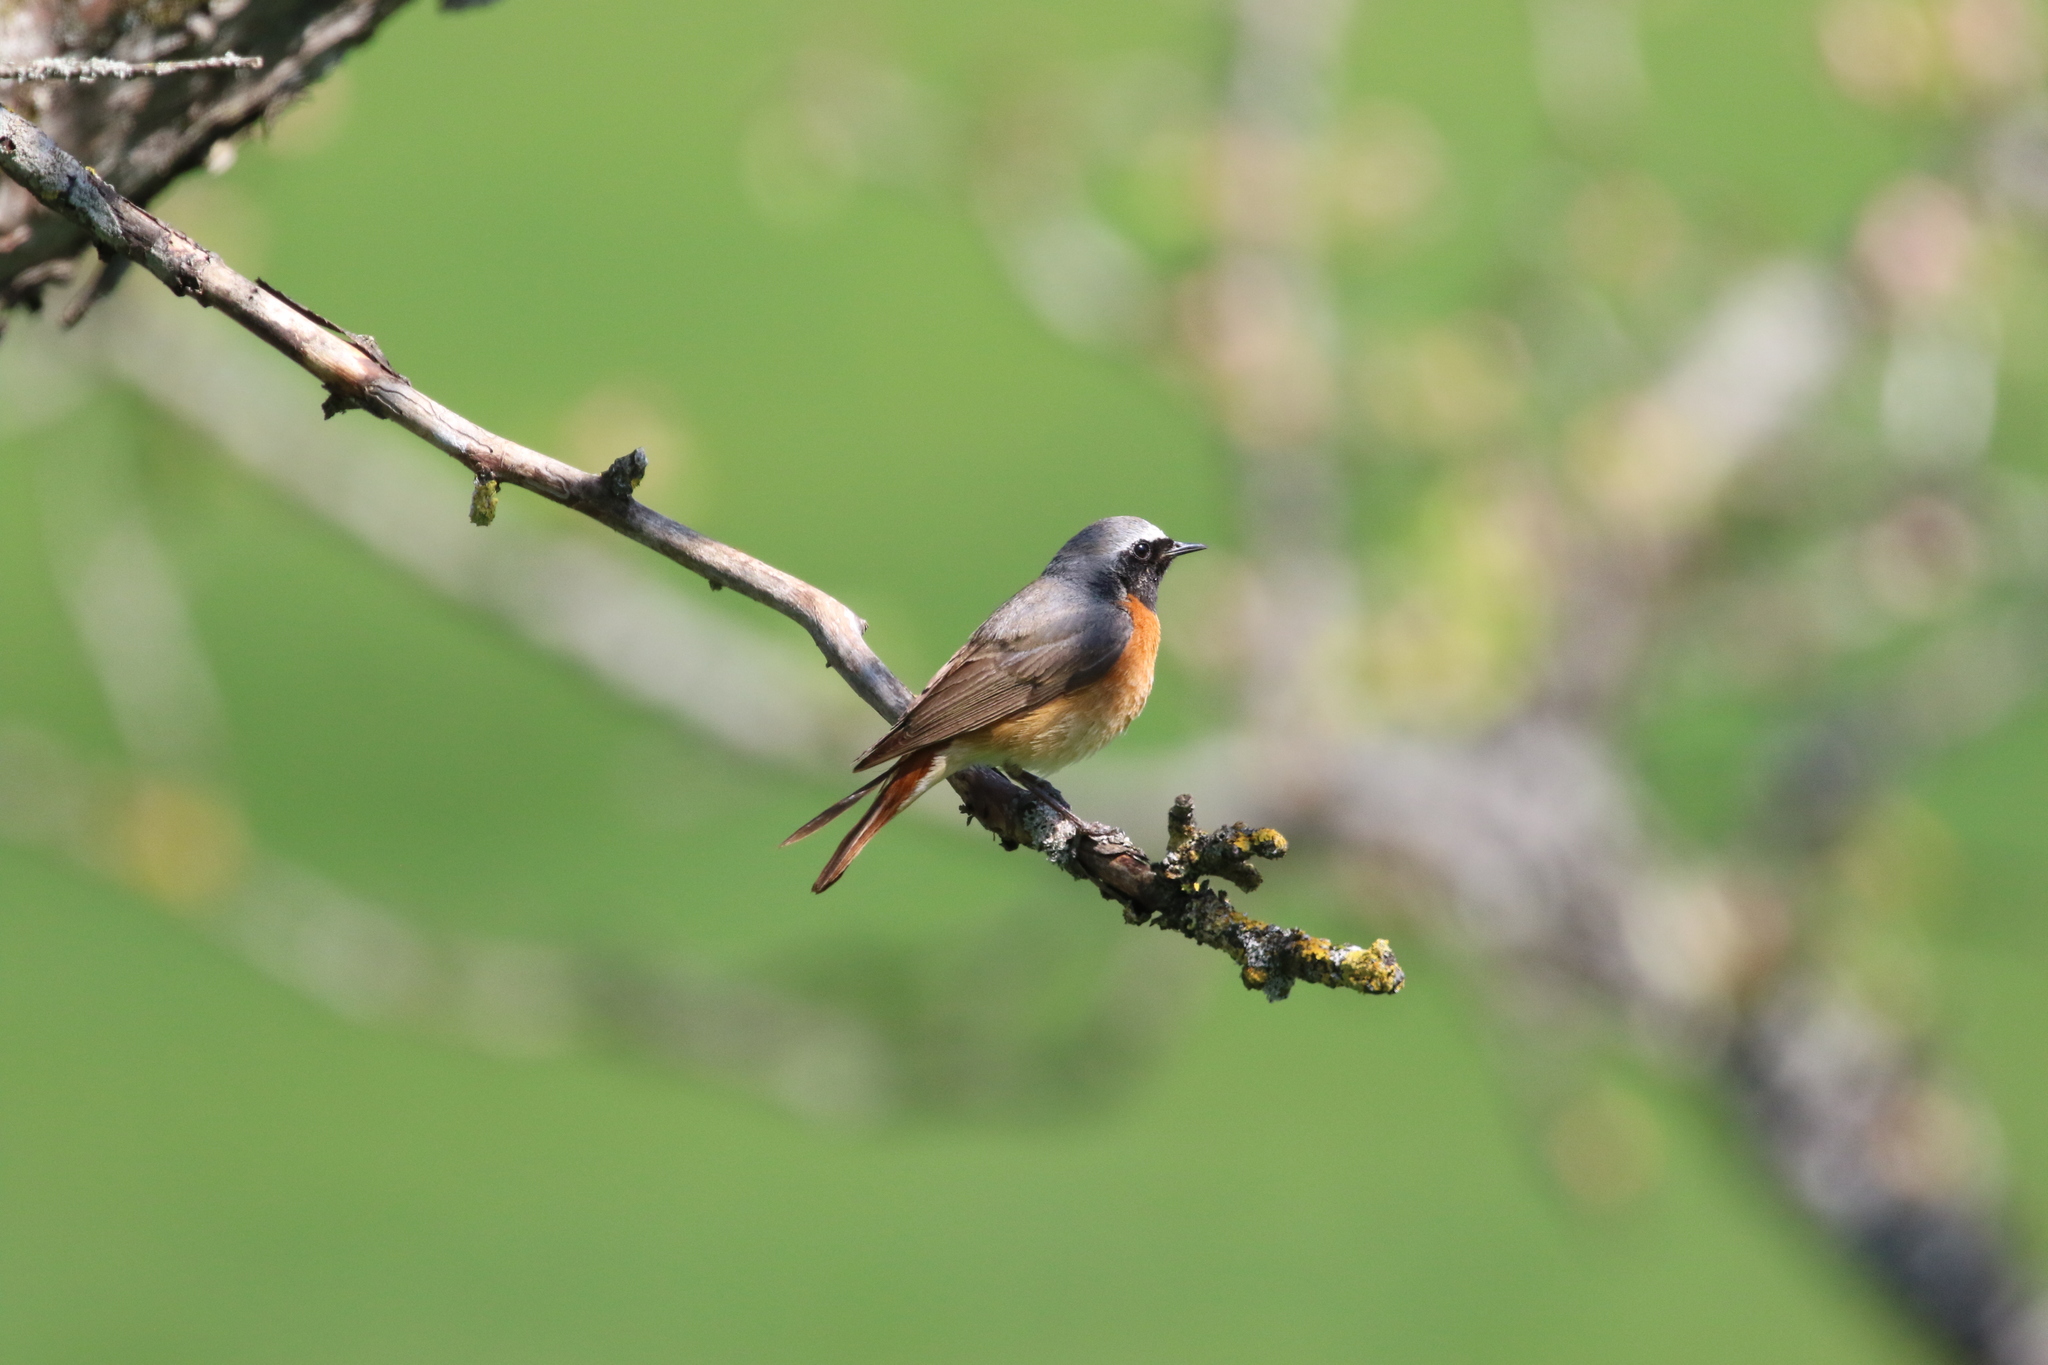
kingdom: Animalia
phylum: Chordata
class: Aves
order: Passeriformes
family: Muscicapidae
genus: Phoenicurus
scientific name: Phoenicurus phoenicurus
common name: Common redstart
